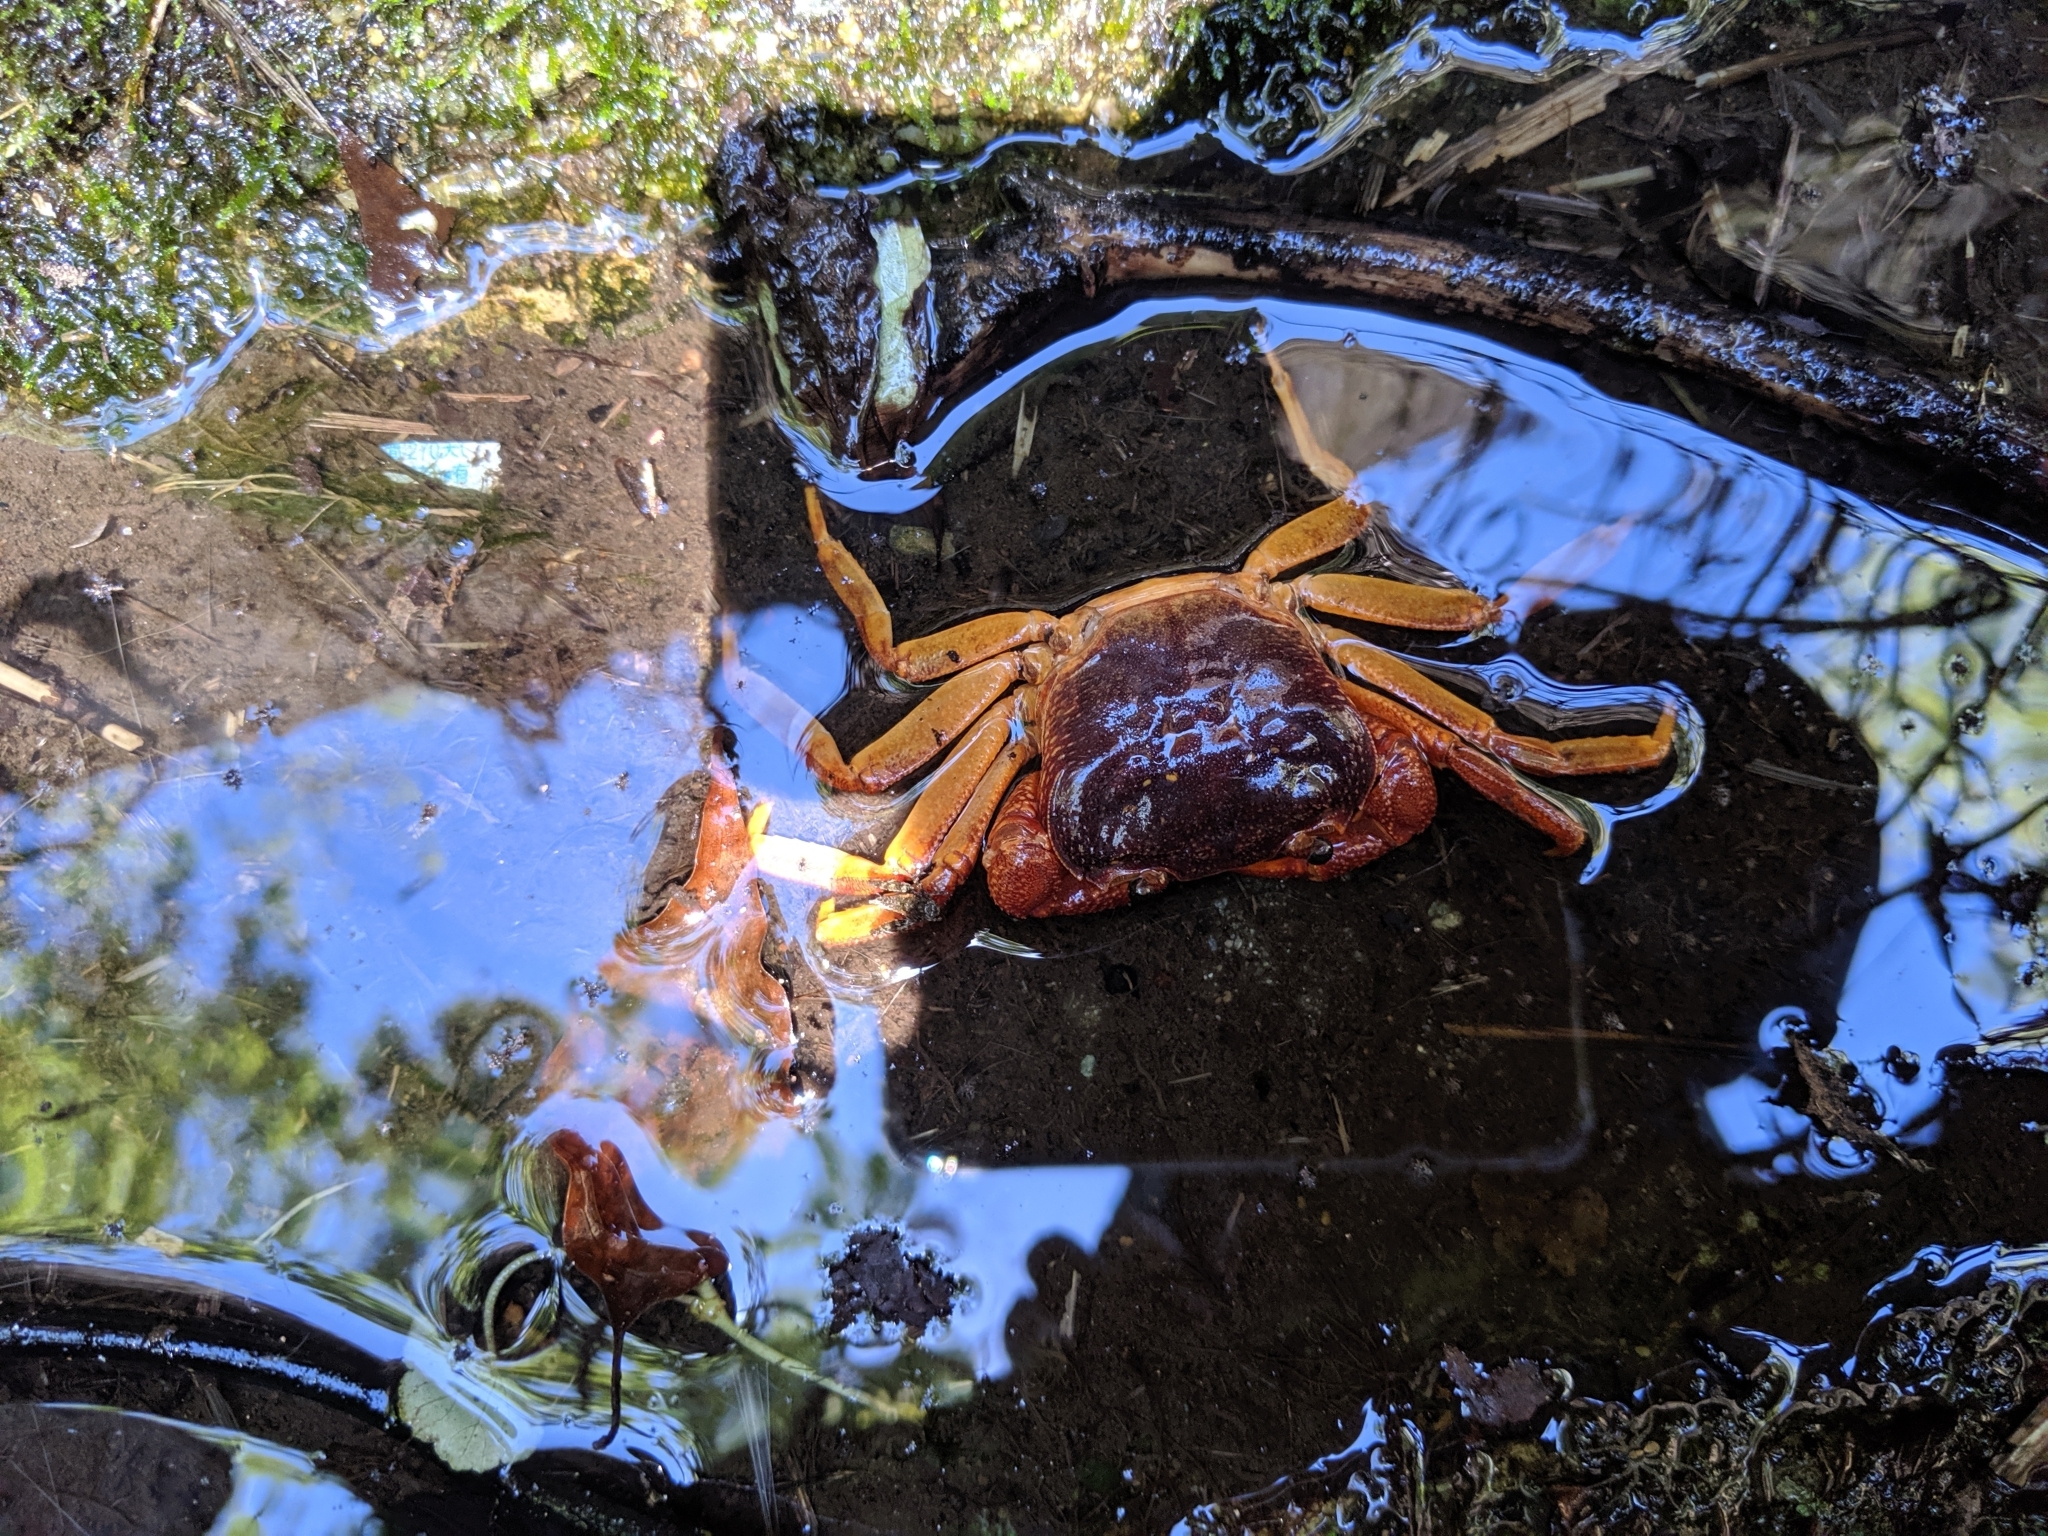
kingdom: Animalia
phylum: Arthropoda
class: Malacostraca
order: Decapoda
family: Potamidae
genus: Candidiopotamon
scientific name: Candidiopotamon rathbuni
